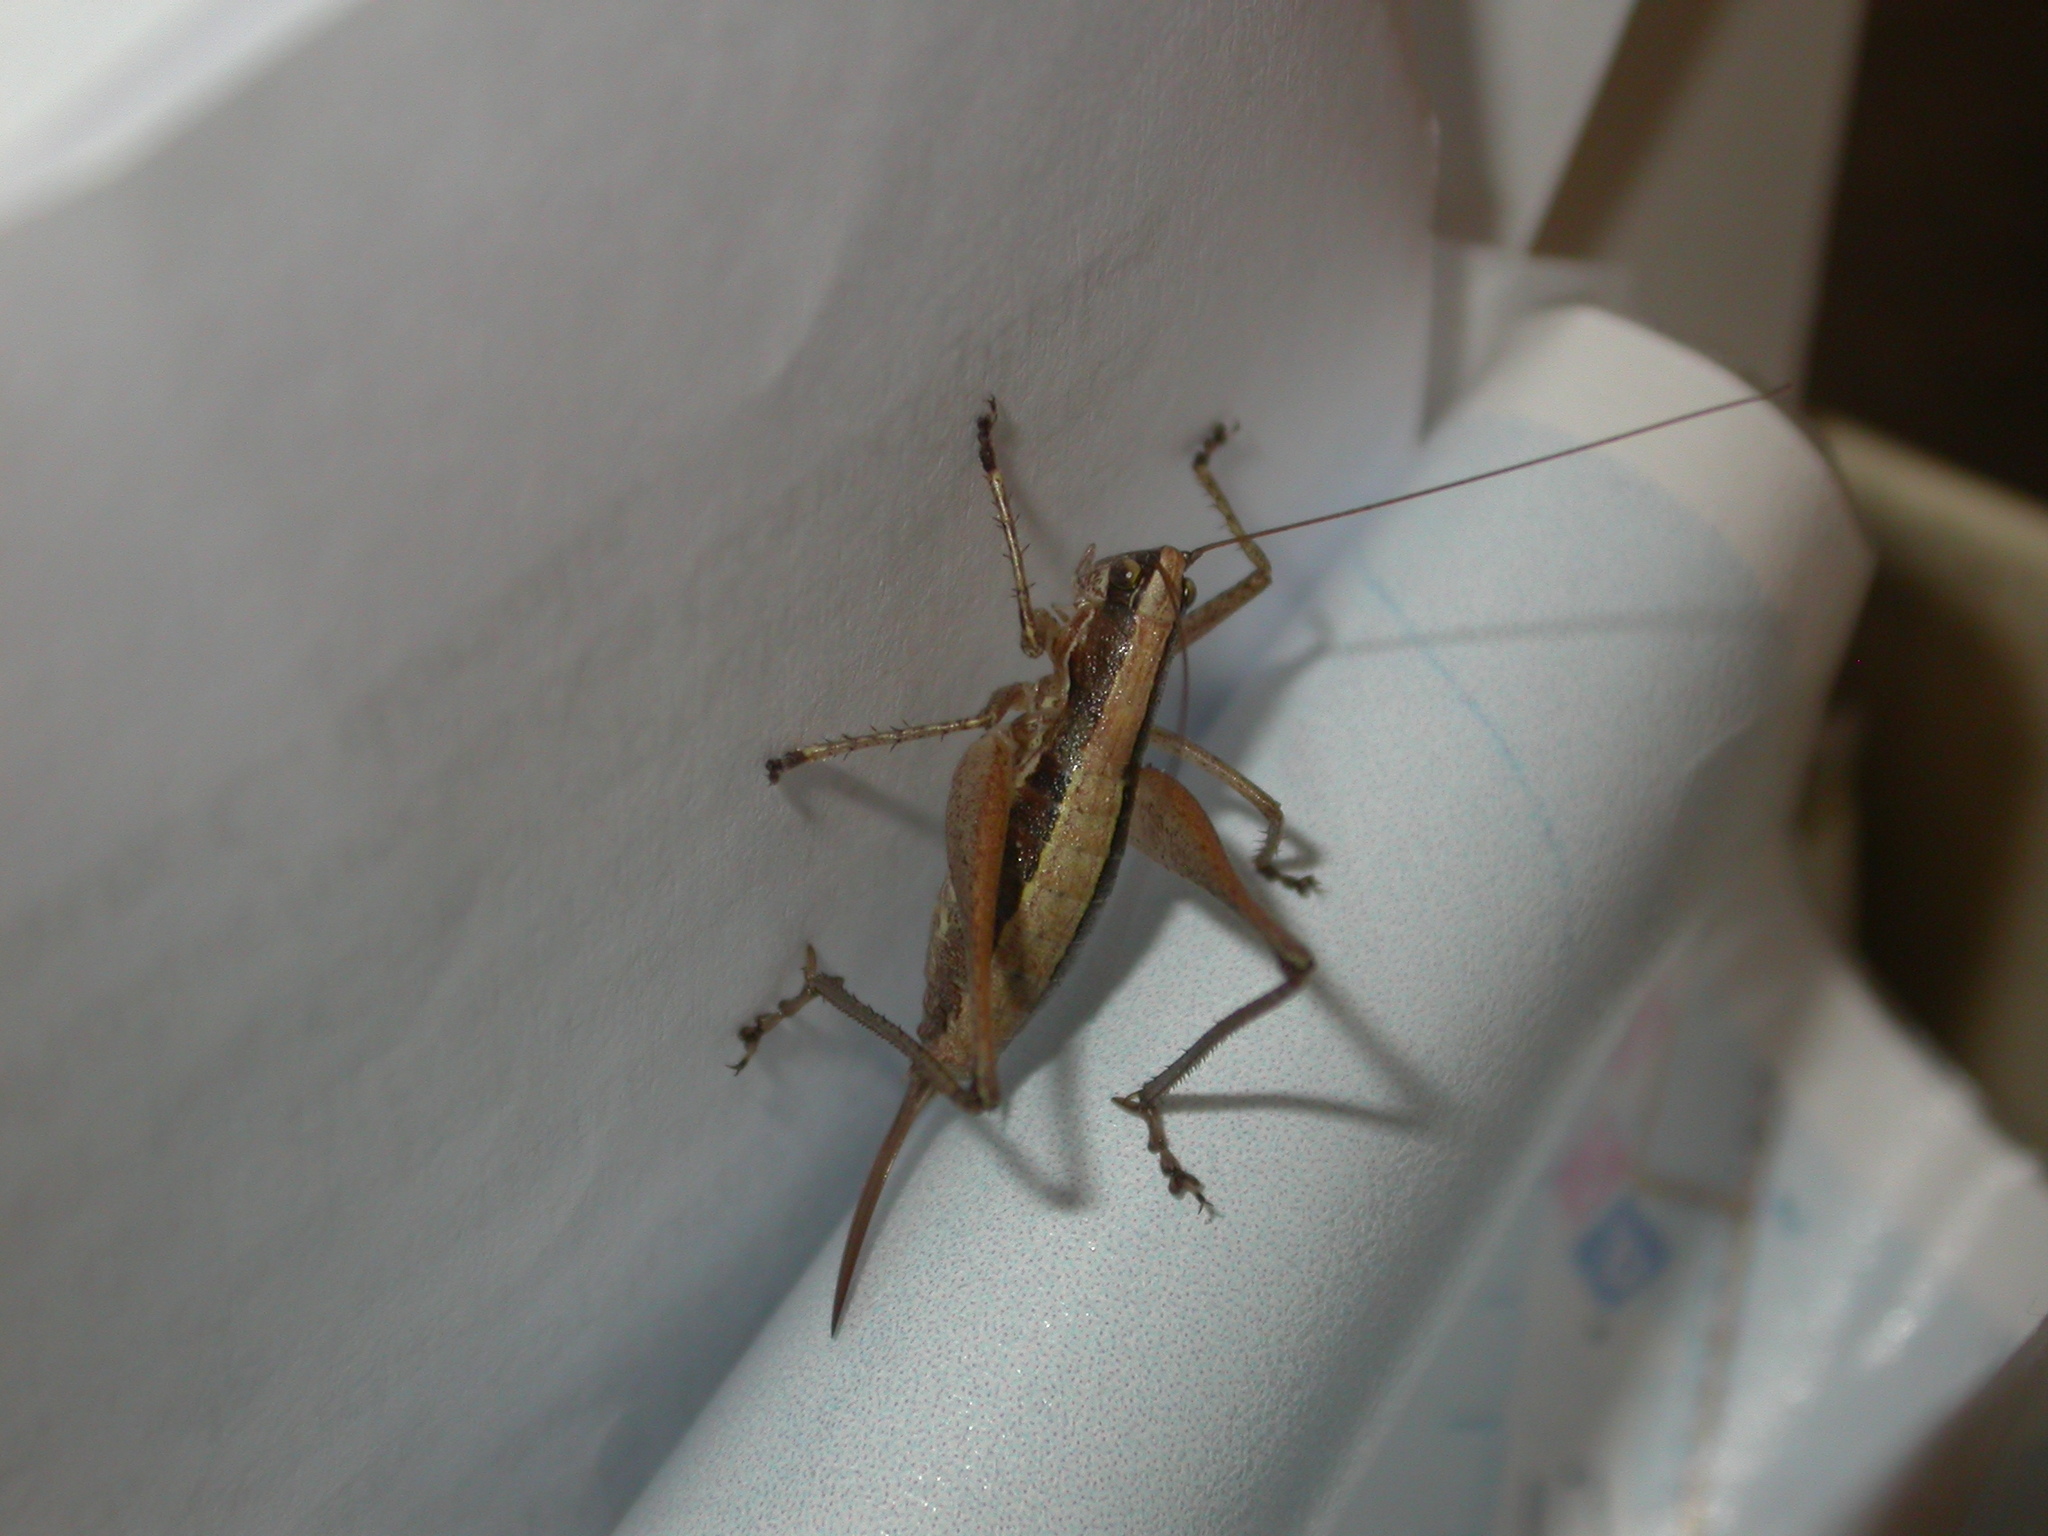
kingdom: Animalia
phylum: Arthropoda
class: Insecta
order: Orthoptera
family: Tettigoniidae
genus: Yersinella
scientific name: Yersinella raymondii
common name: Raymond's bush-cricket
